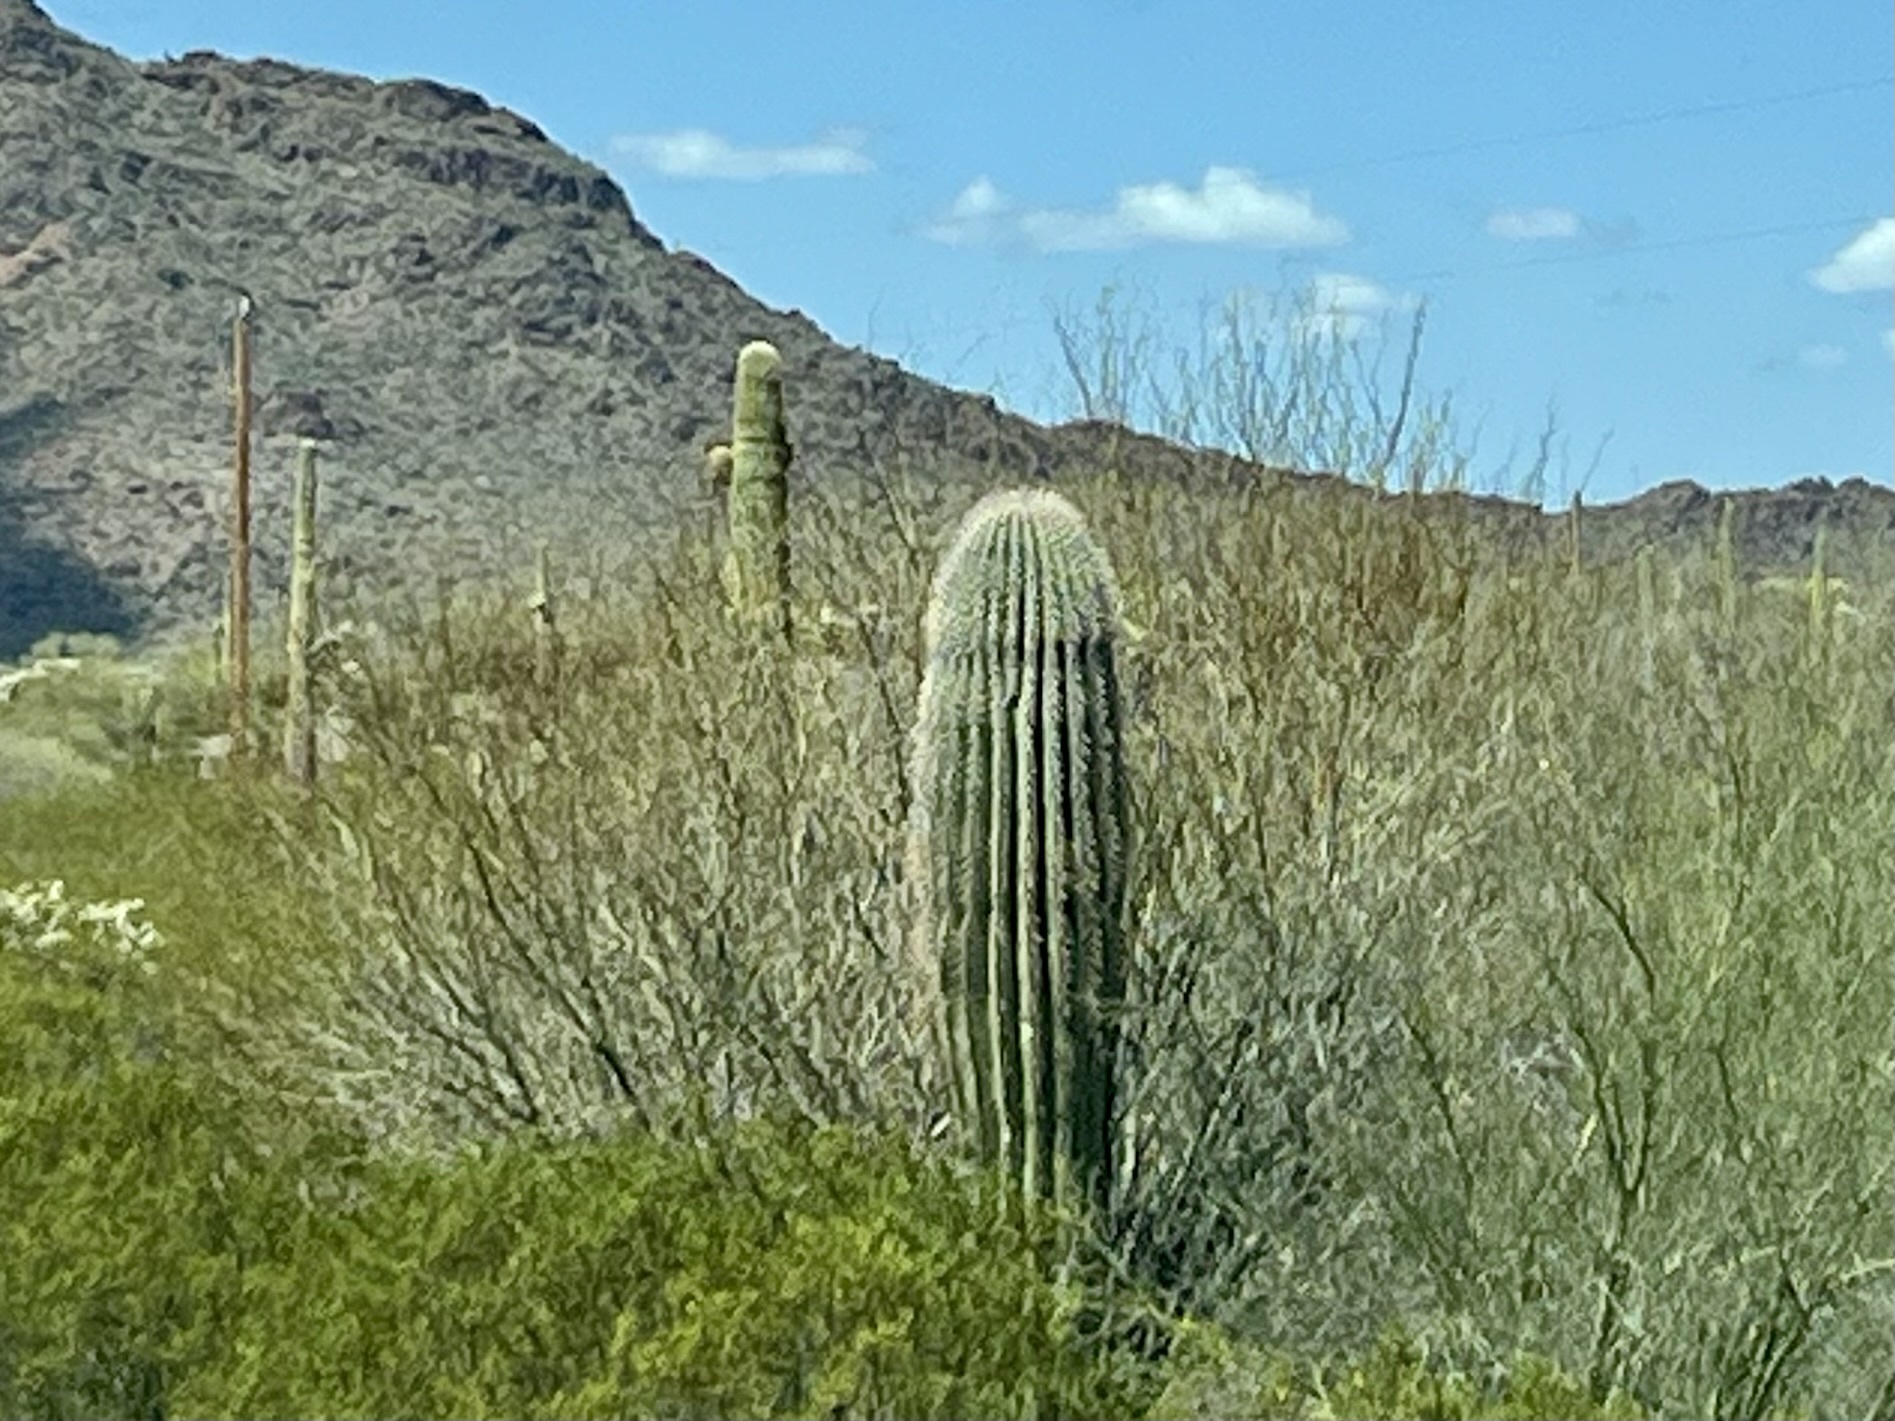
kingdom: Plantae
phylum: Tracheophyta
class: Magnoliopsida
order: Caryophyllales
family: Cactaceae
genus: Carnegiea
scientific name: Carnegiea gigantea
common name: Saguaro
